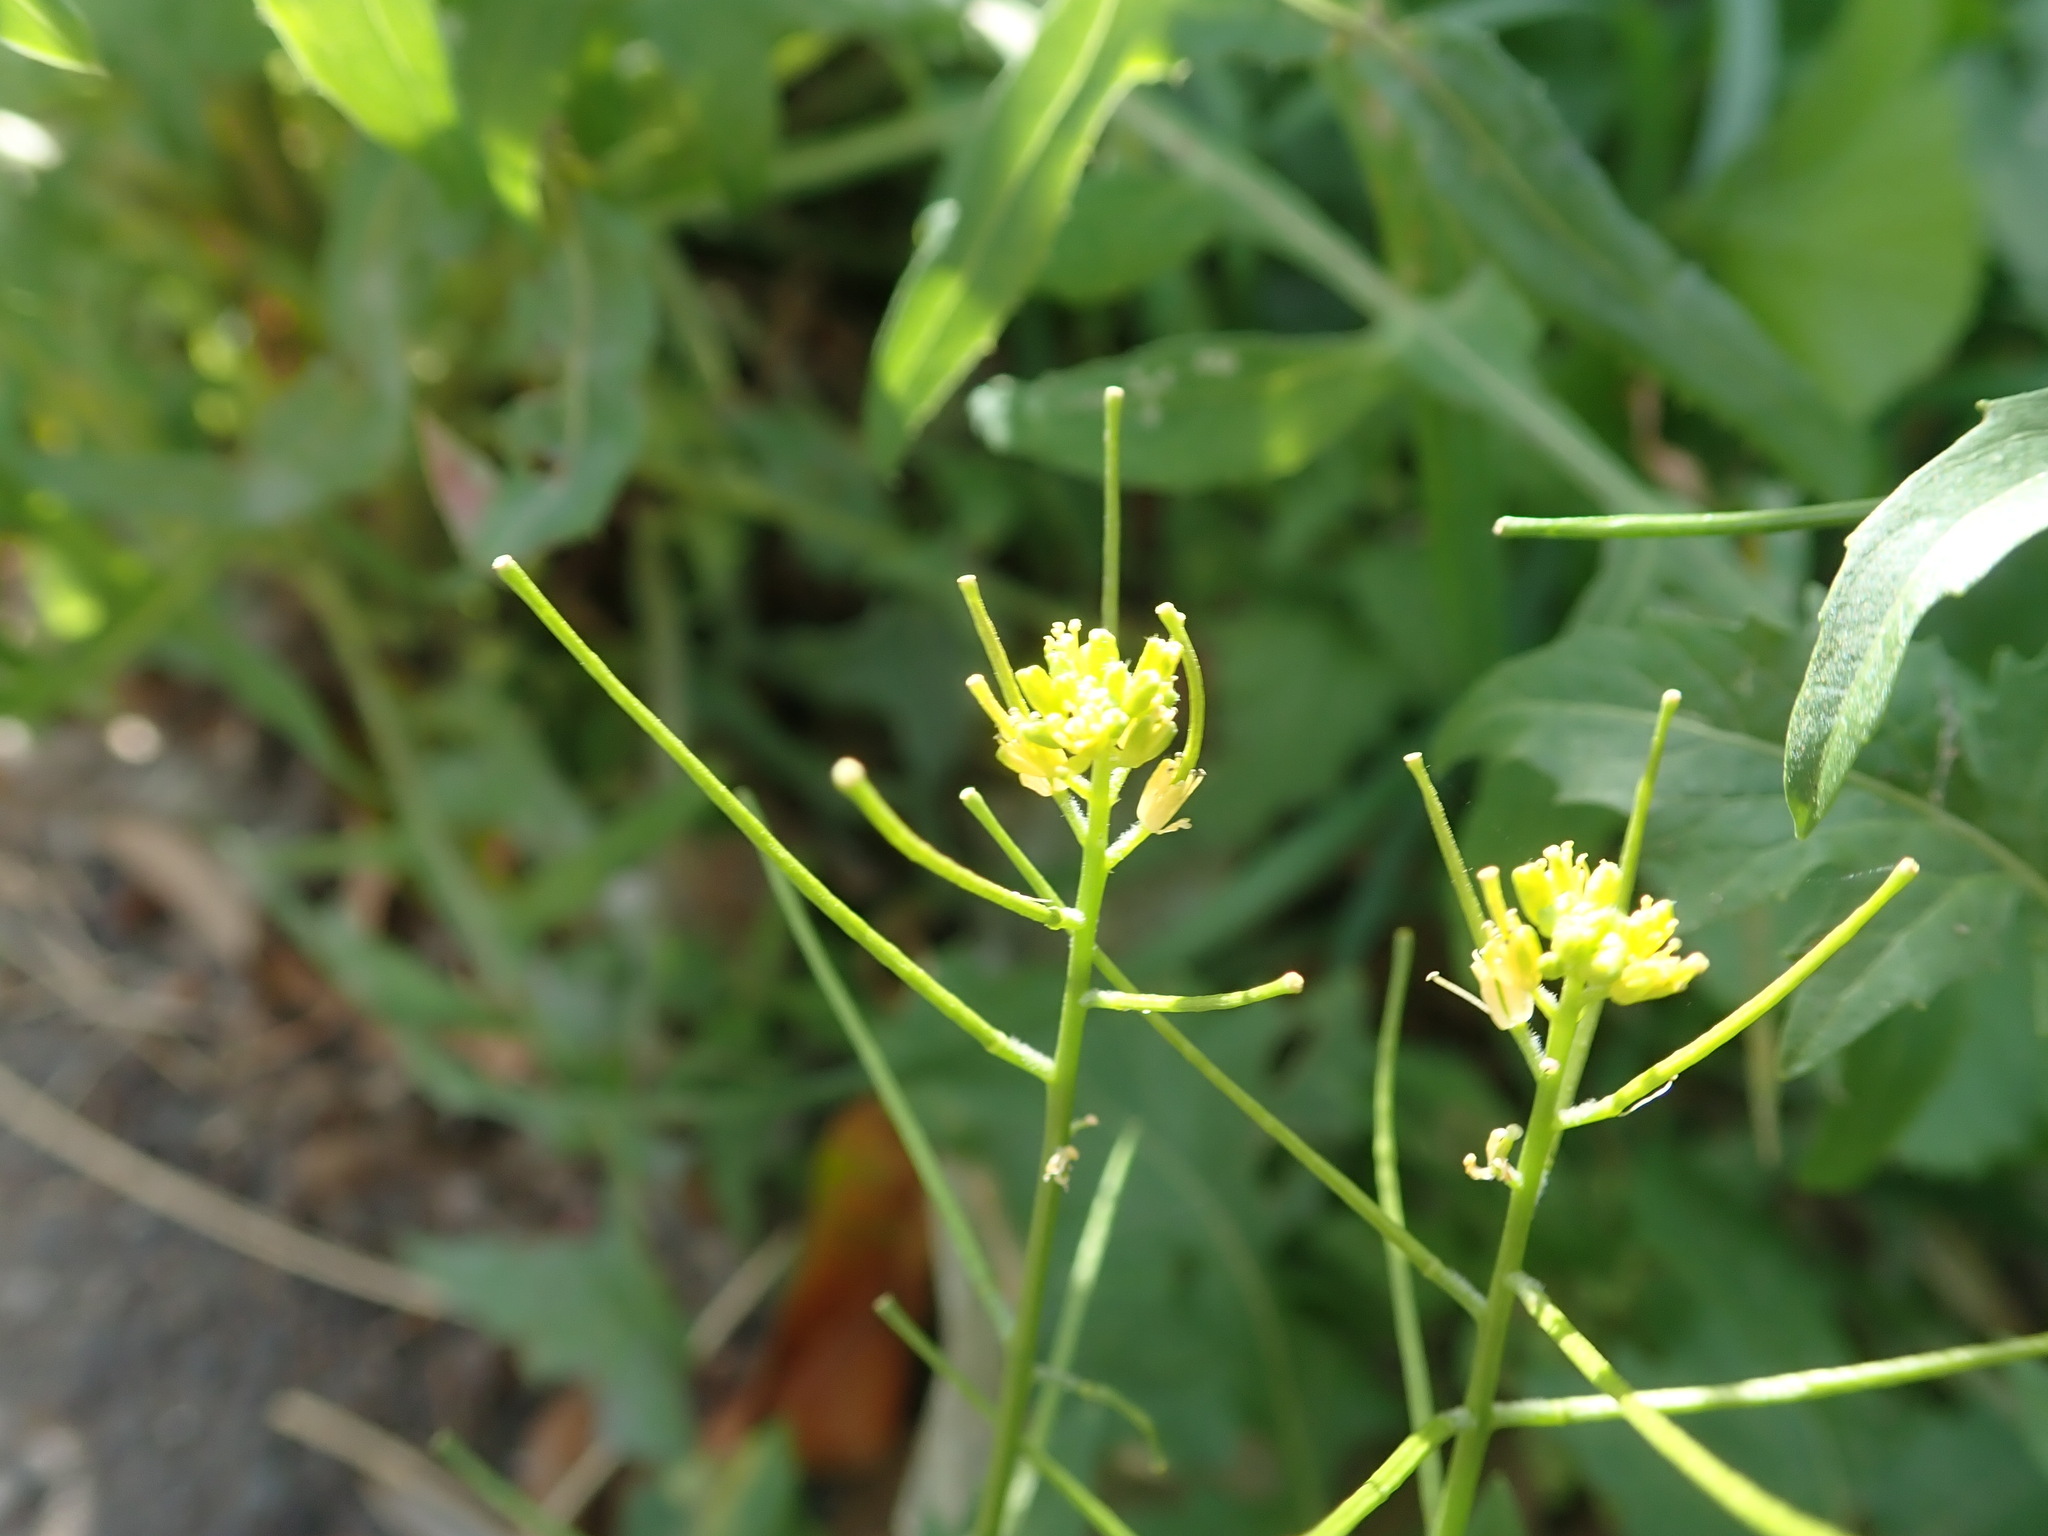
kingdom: Plantae
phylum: Tracheophyta
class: Magnoliopsida
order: Brassicales
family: Brassicaceae
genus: Sisymbrium
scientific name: Sisymbrium erysimoides
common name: French rocket
